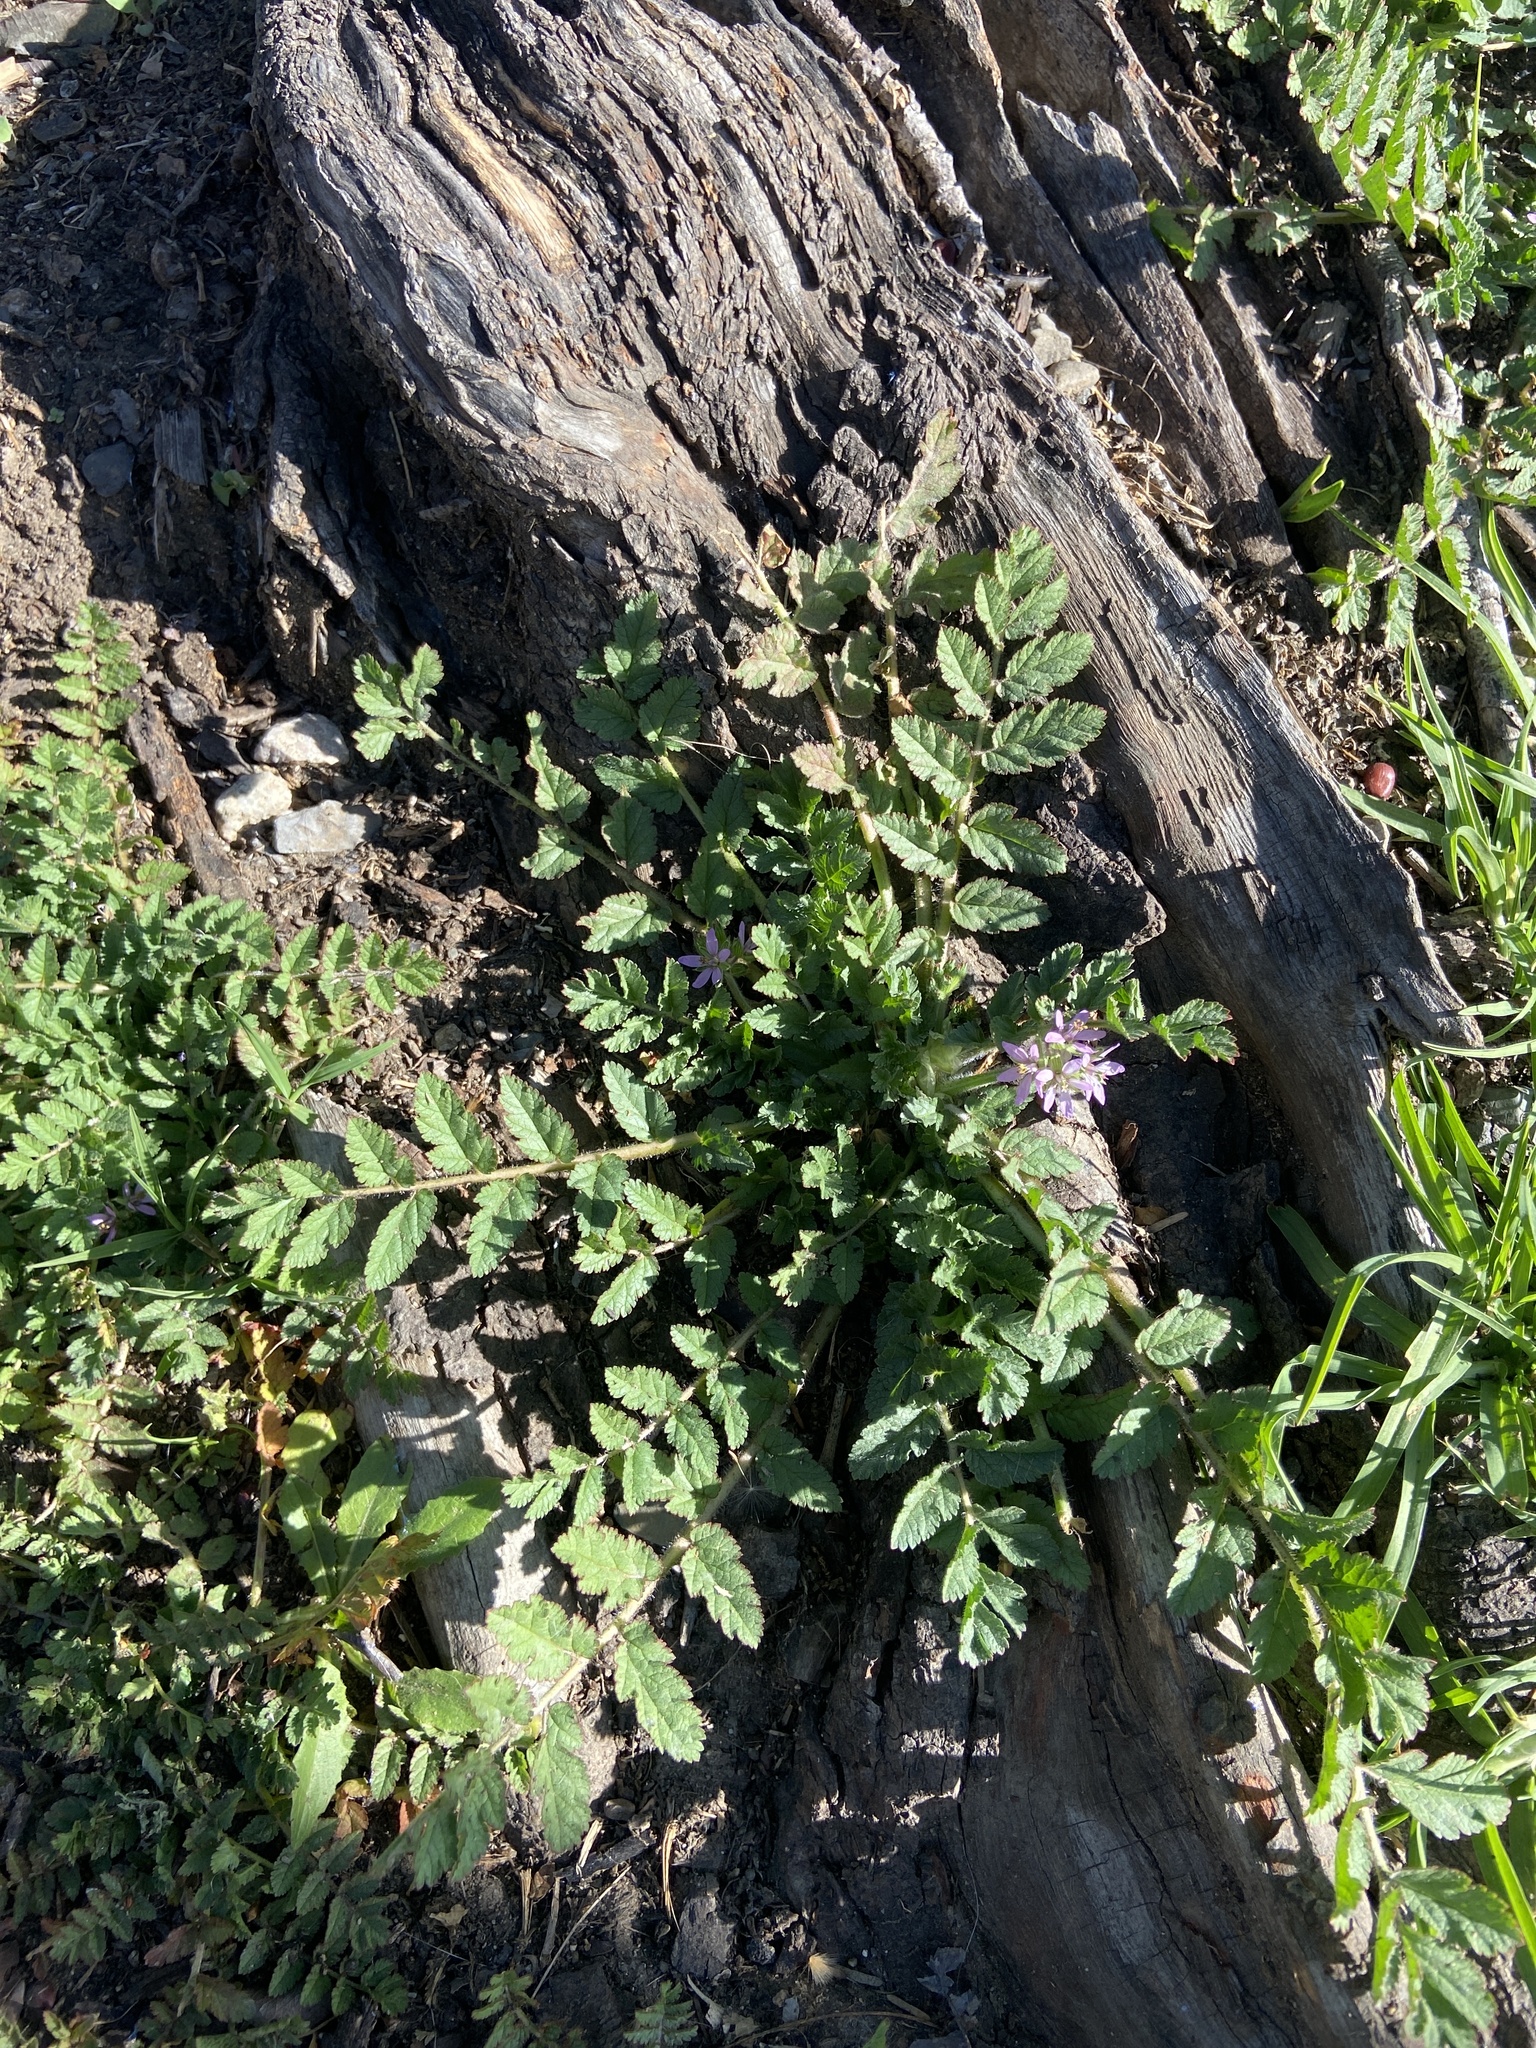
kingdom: Plantae
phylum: Tracheophyta
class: Magnoliopsida
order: Geraniales
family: Geraniaceae
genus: Erodium
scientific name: Erodium moschatum
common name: Musk stork's-bill
